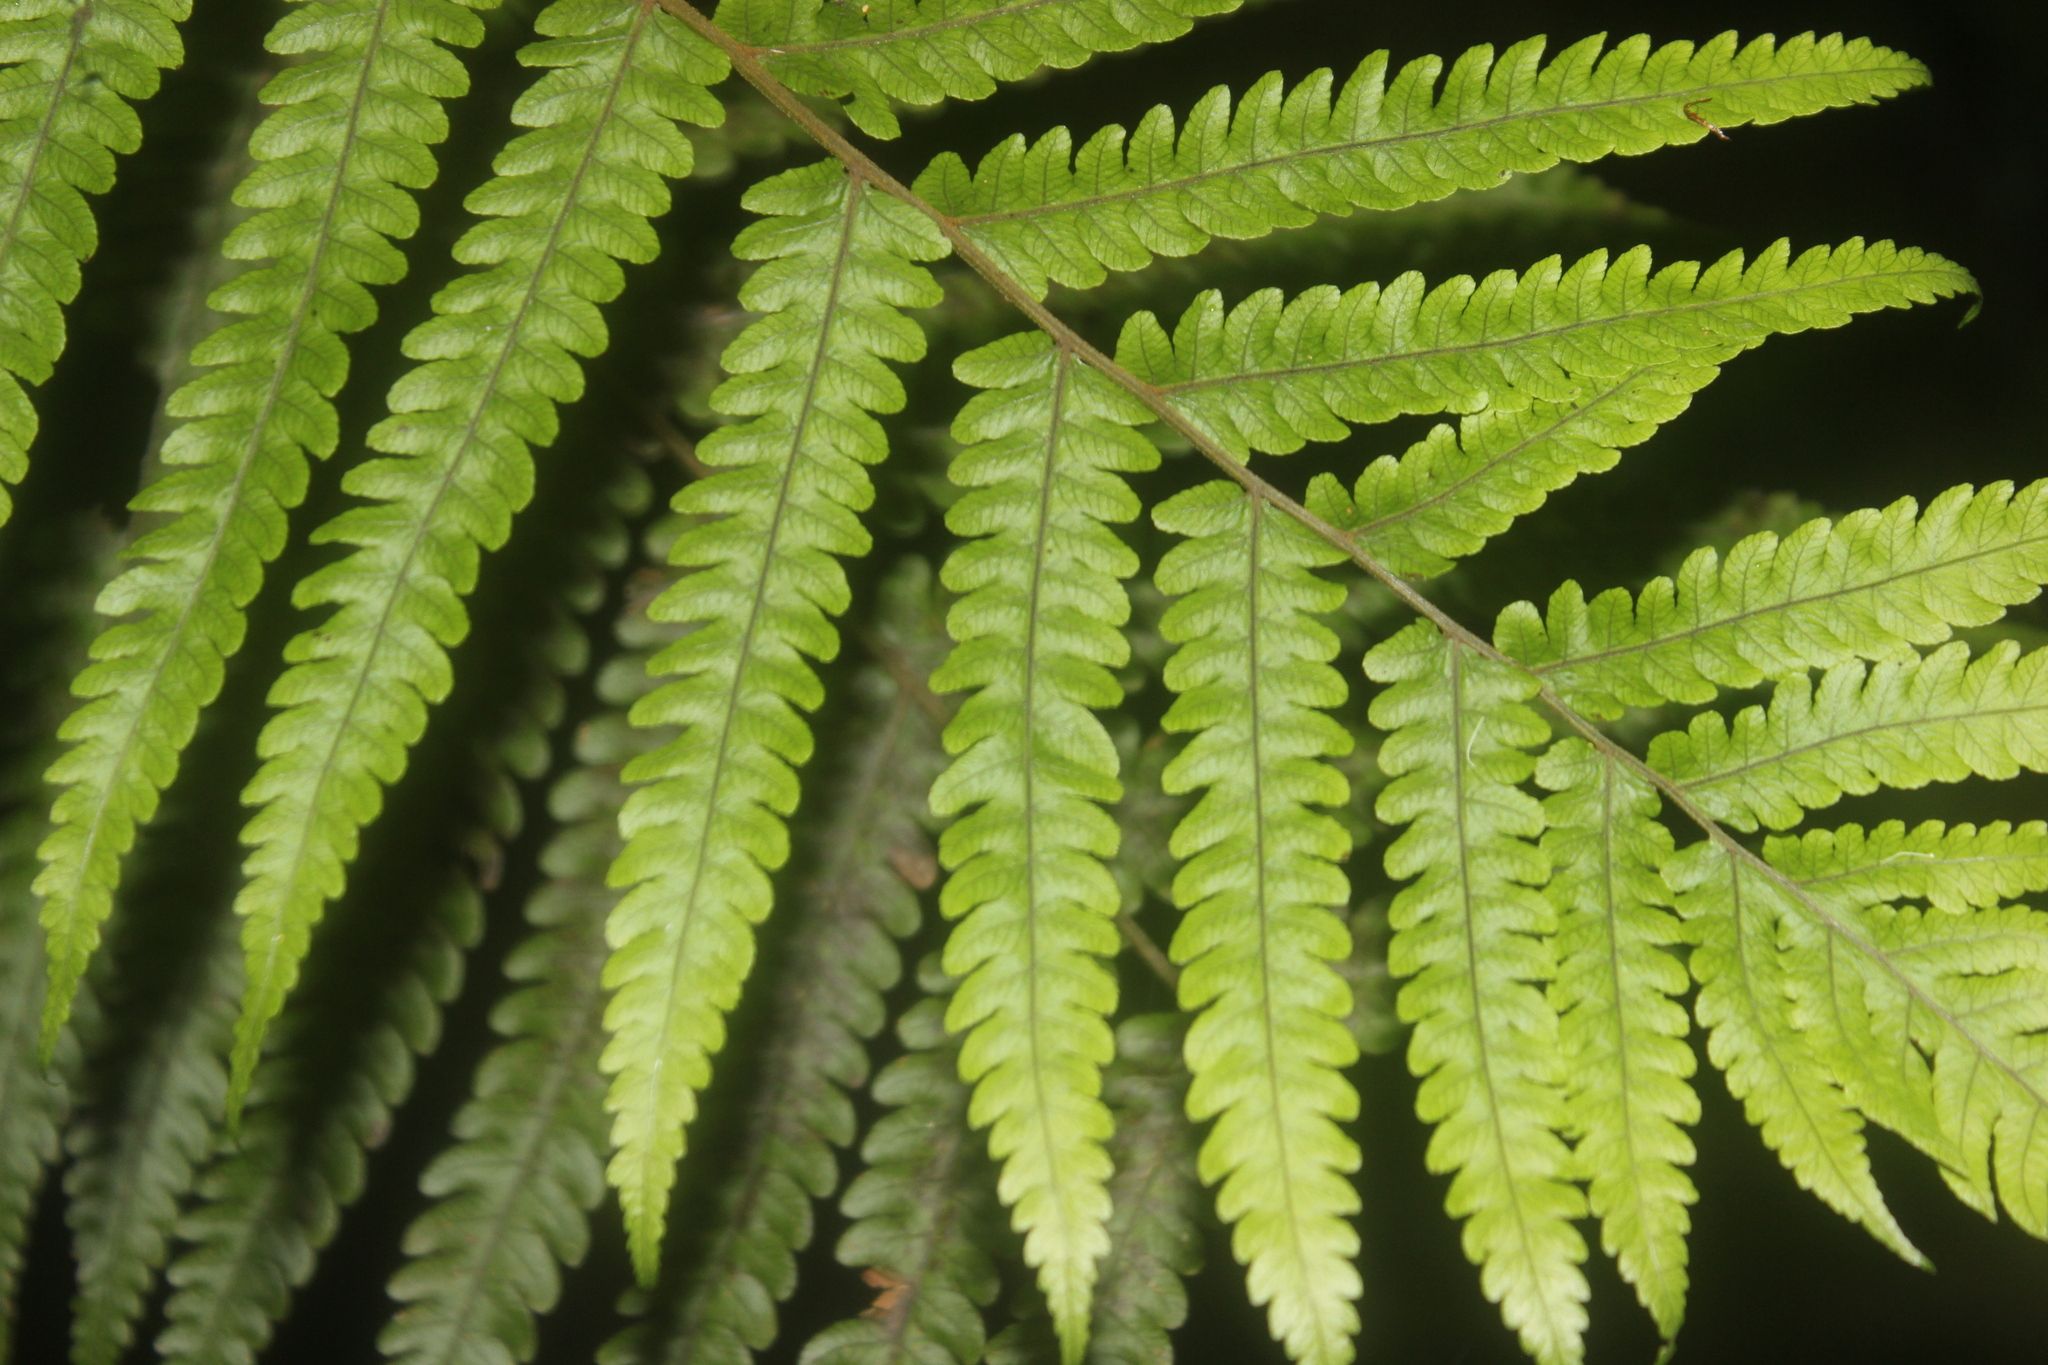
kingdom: Plantae
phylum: Tracheophyta
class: Polypodiopsida
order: Polypodiales
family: Thelypteridaceae
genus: Pakau
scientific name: Pakau pennigera
